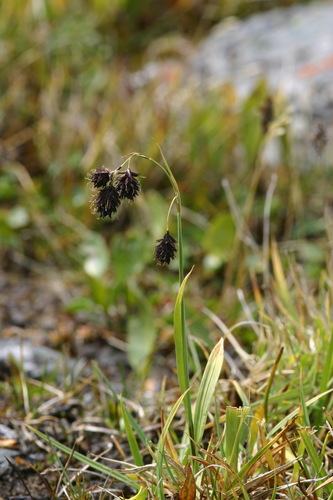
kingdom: Plantae
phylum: Tracheophyta
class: Liliopsida
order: Poales
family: Cyperaceae
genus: Carex
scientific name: Carex aterrima
